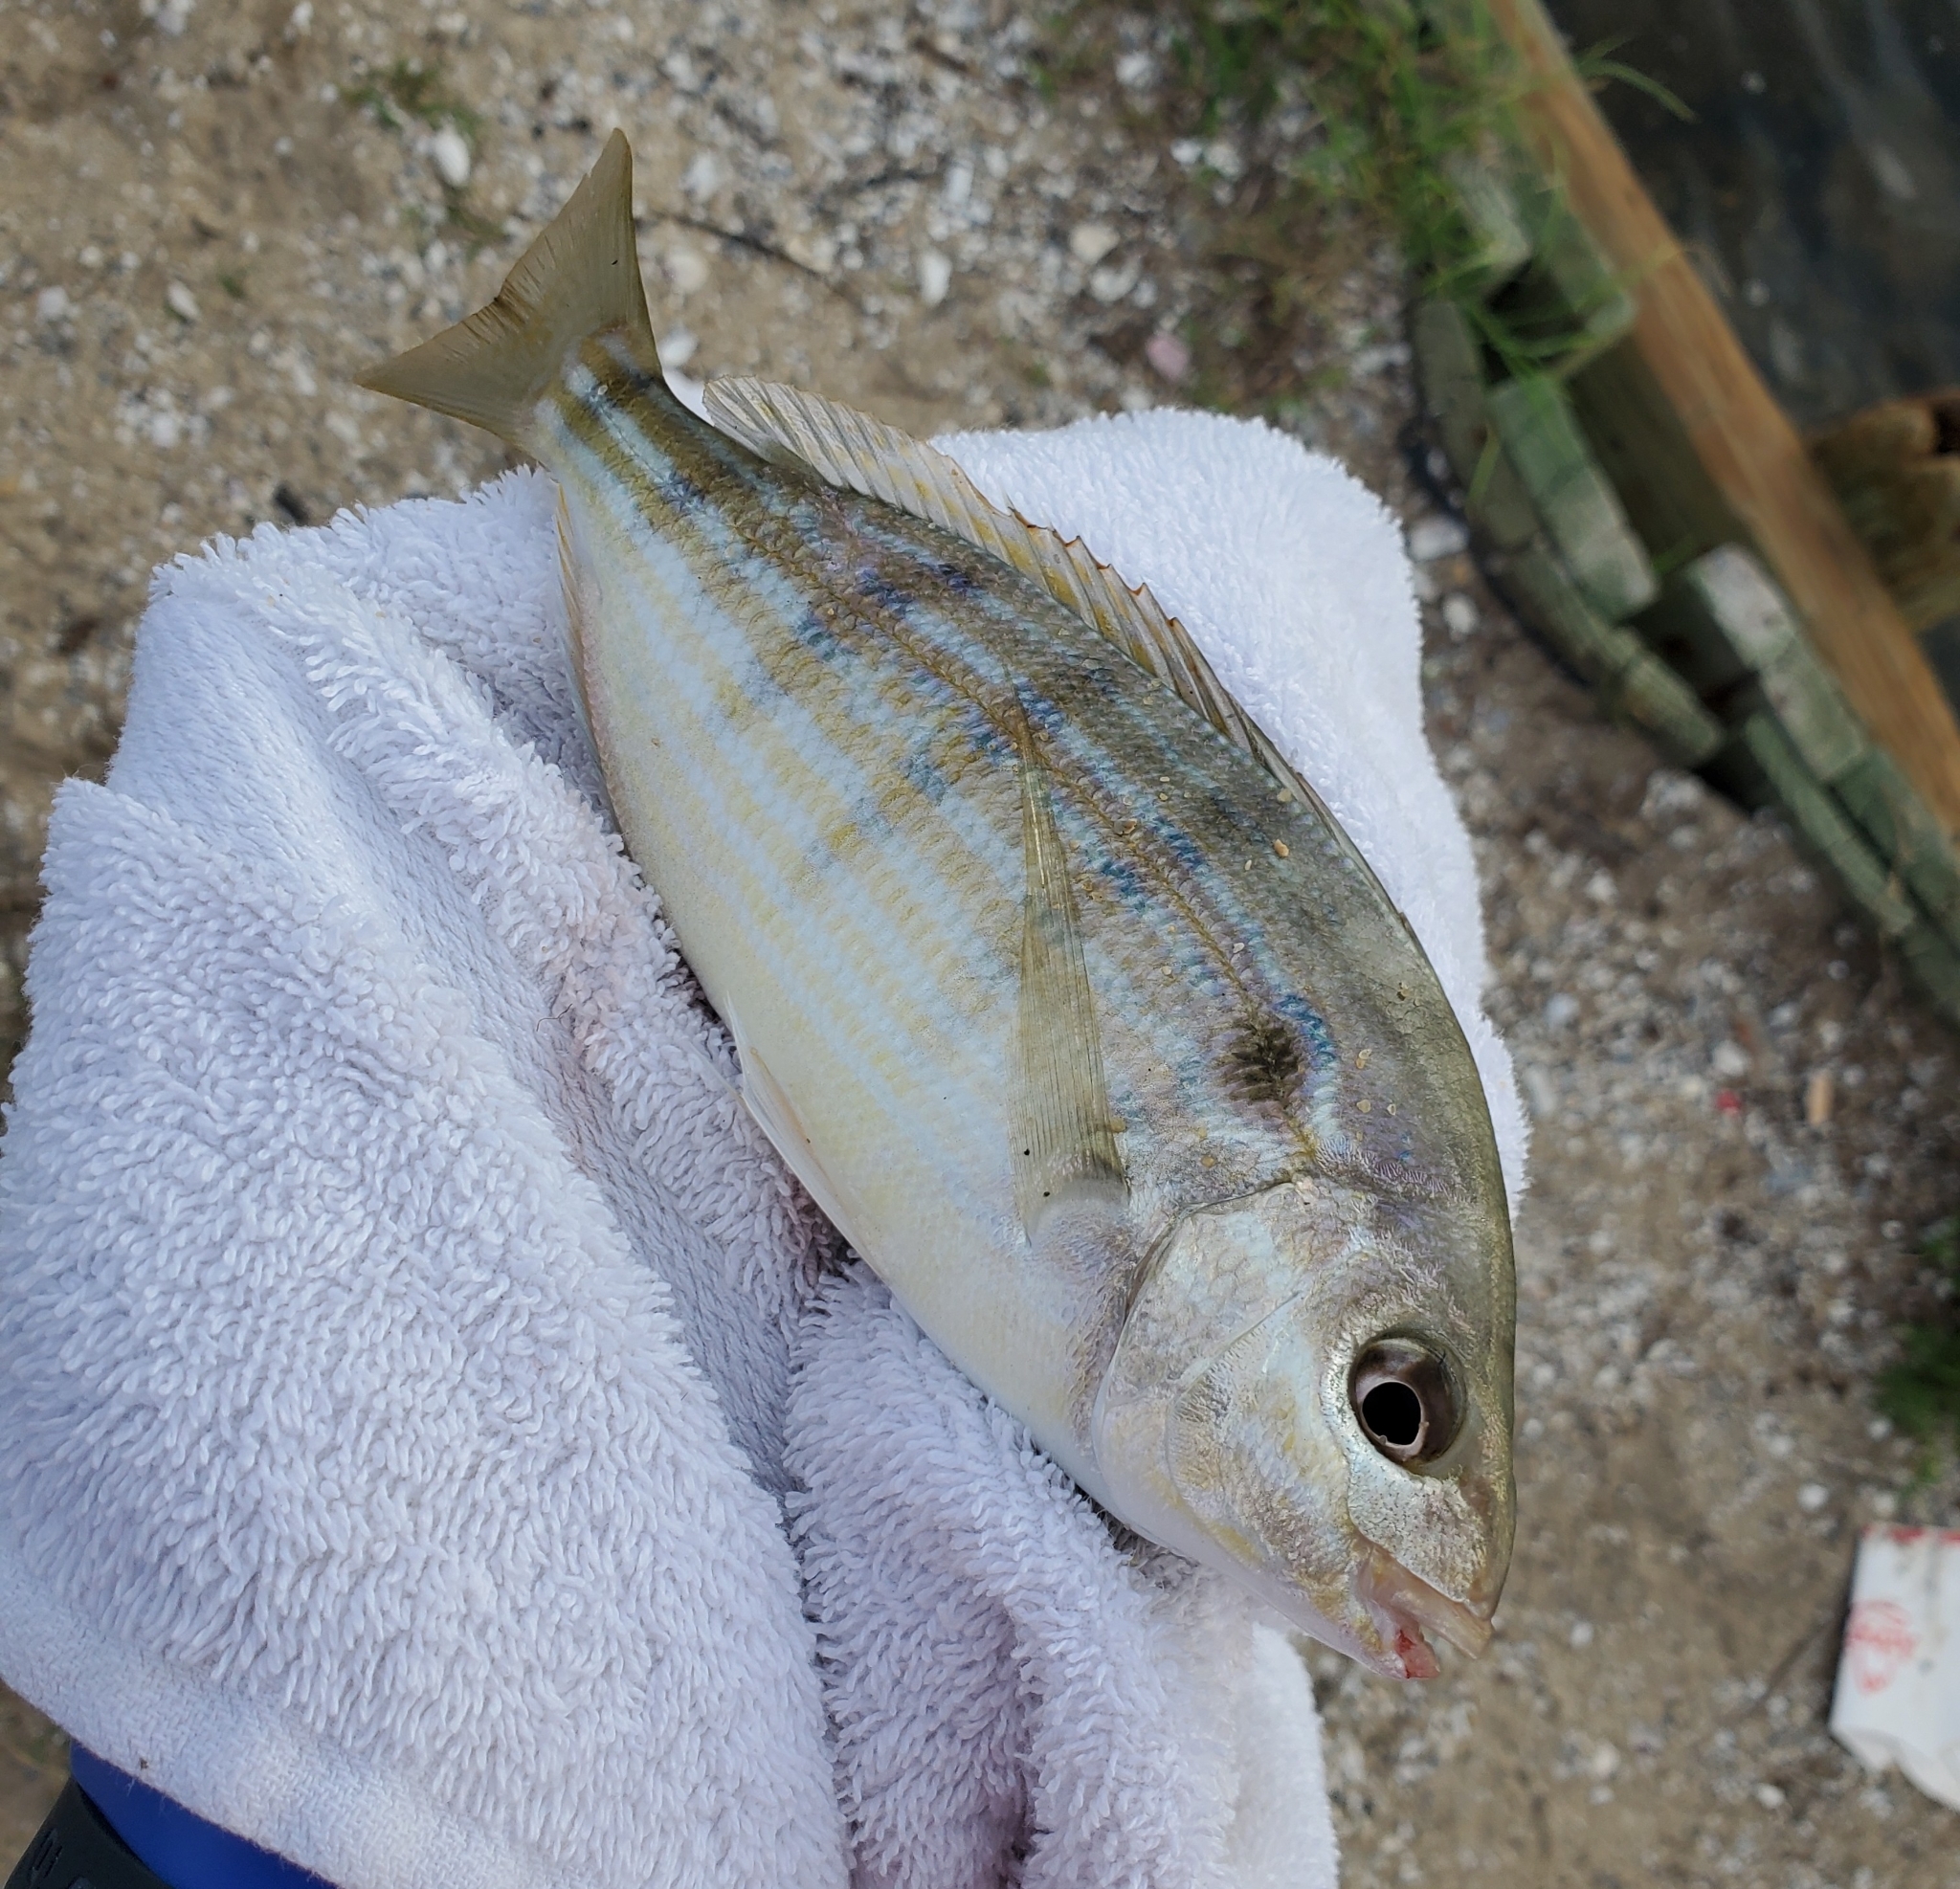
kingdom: Animalia
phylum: Chordata
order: Perciformes
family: Sparidae
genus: Lagodon
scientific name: Lagodon rhomboides
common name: Pinfish
